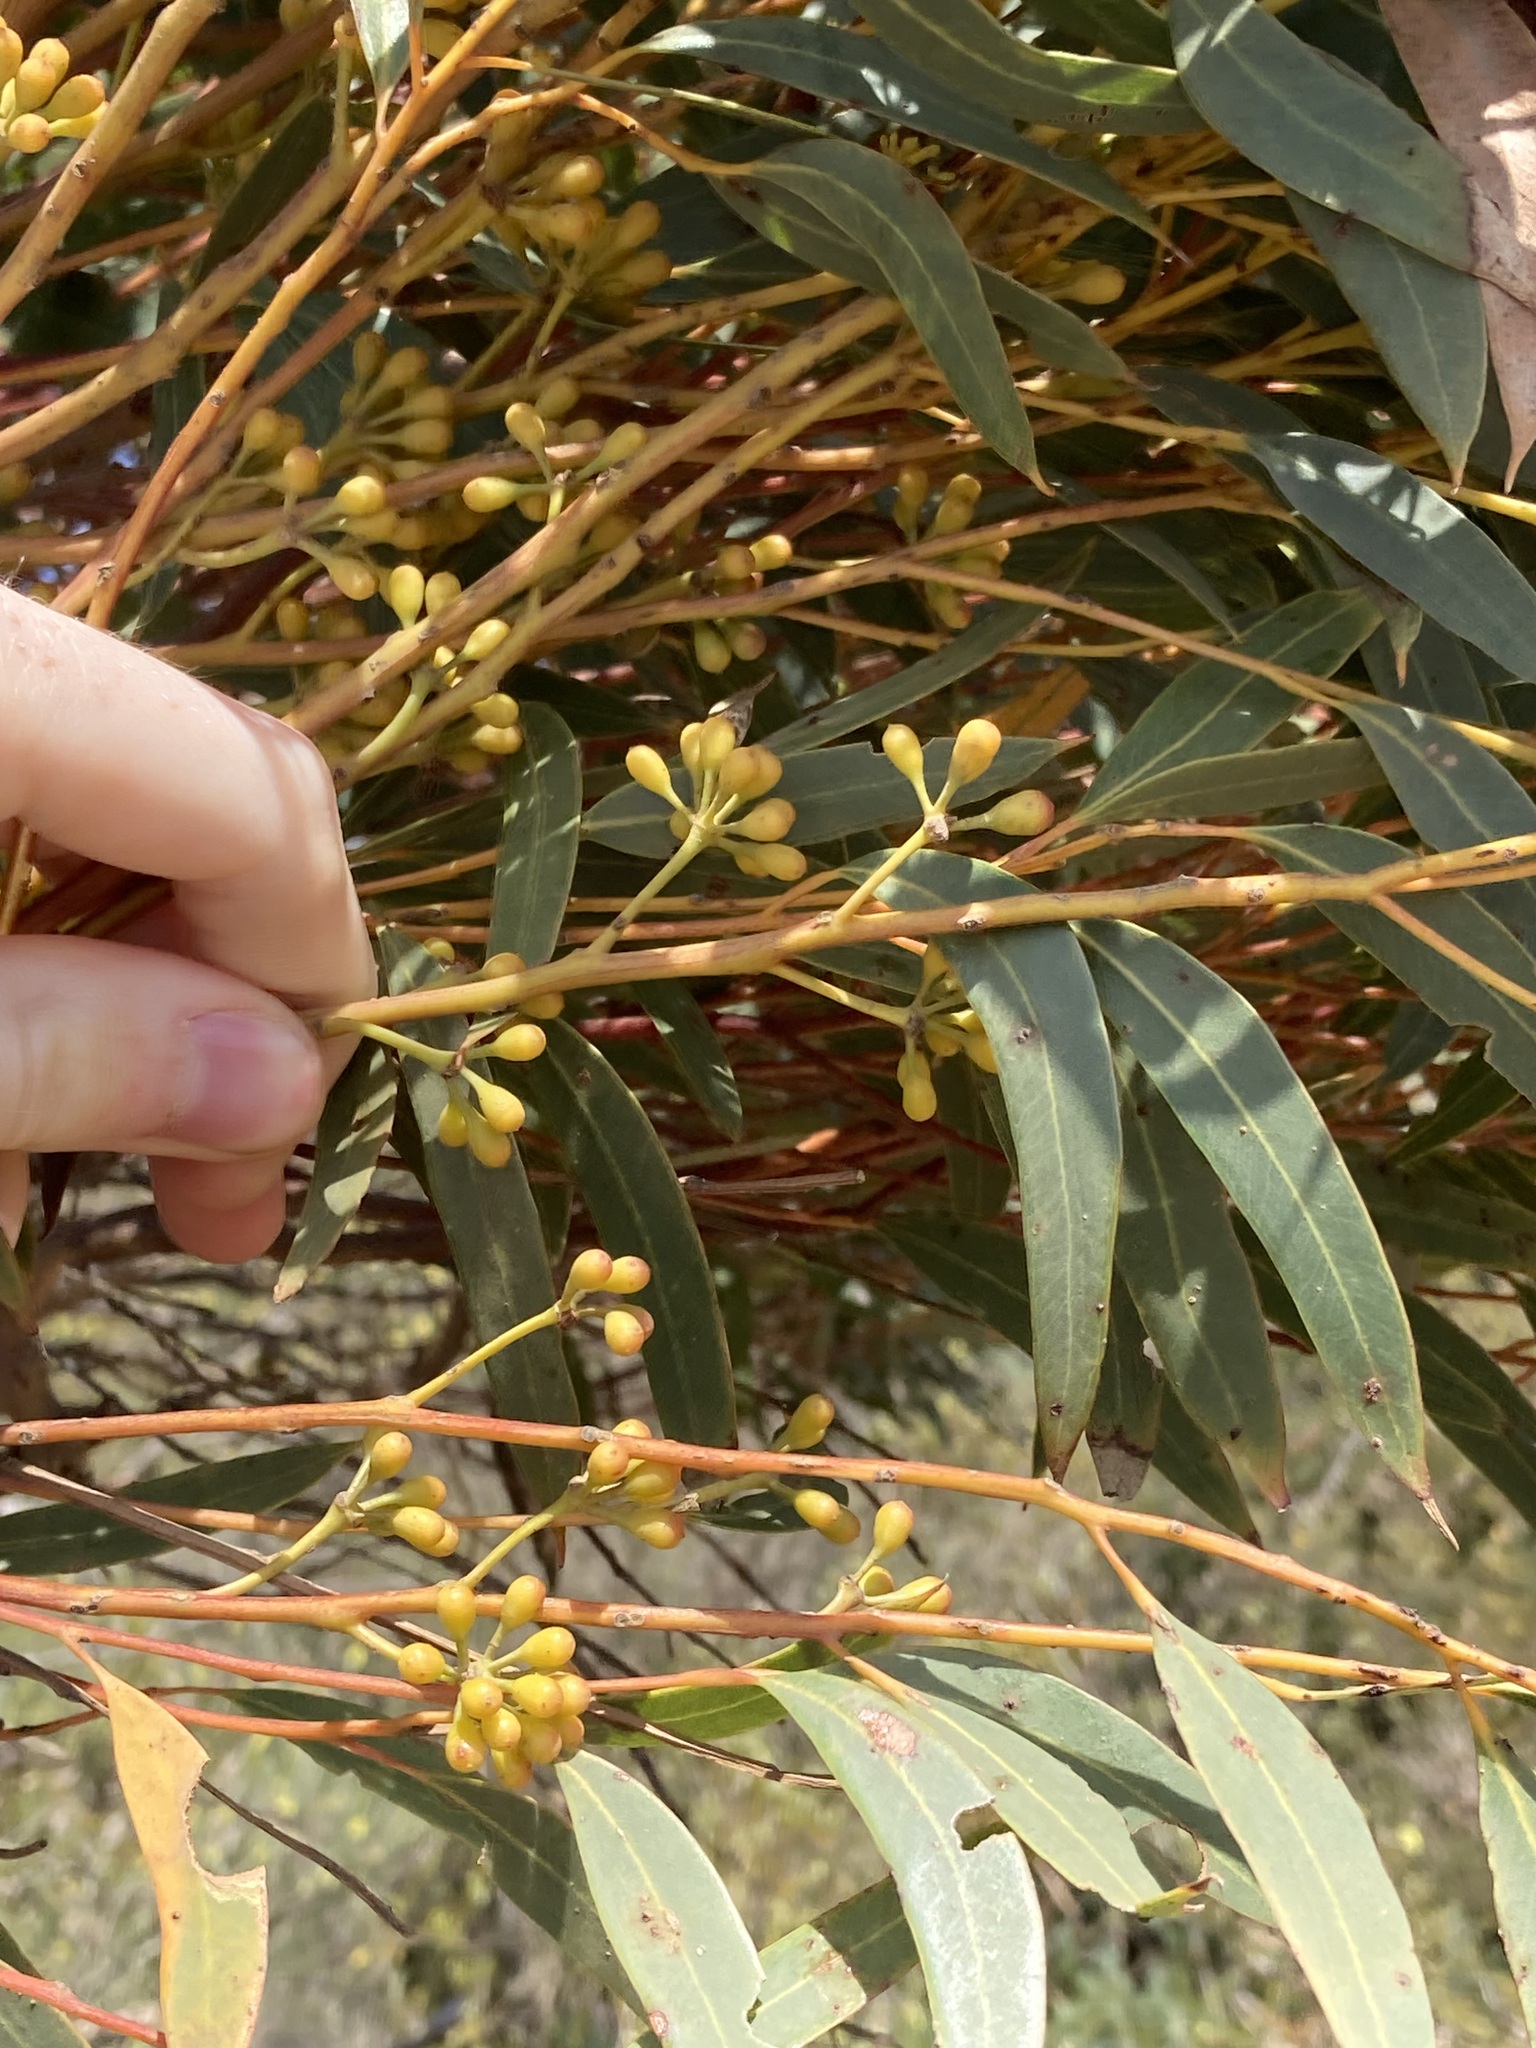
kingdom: Plantae
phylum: Tracheophyta
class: Magnoliopsida
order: Myrtales
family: Myrtaceae
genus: Eucalyptus
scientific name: Eucalyptus buprestium
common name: Apple mallee
